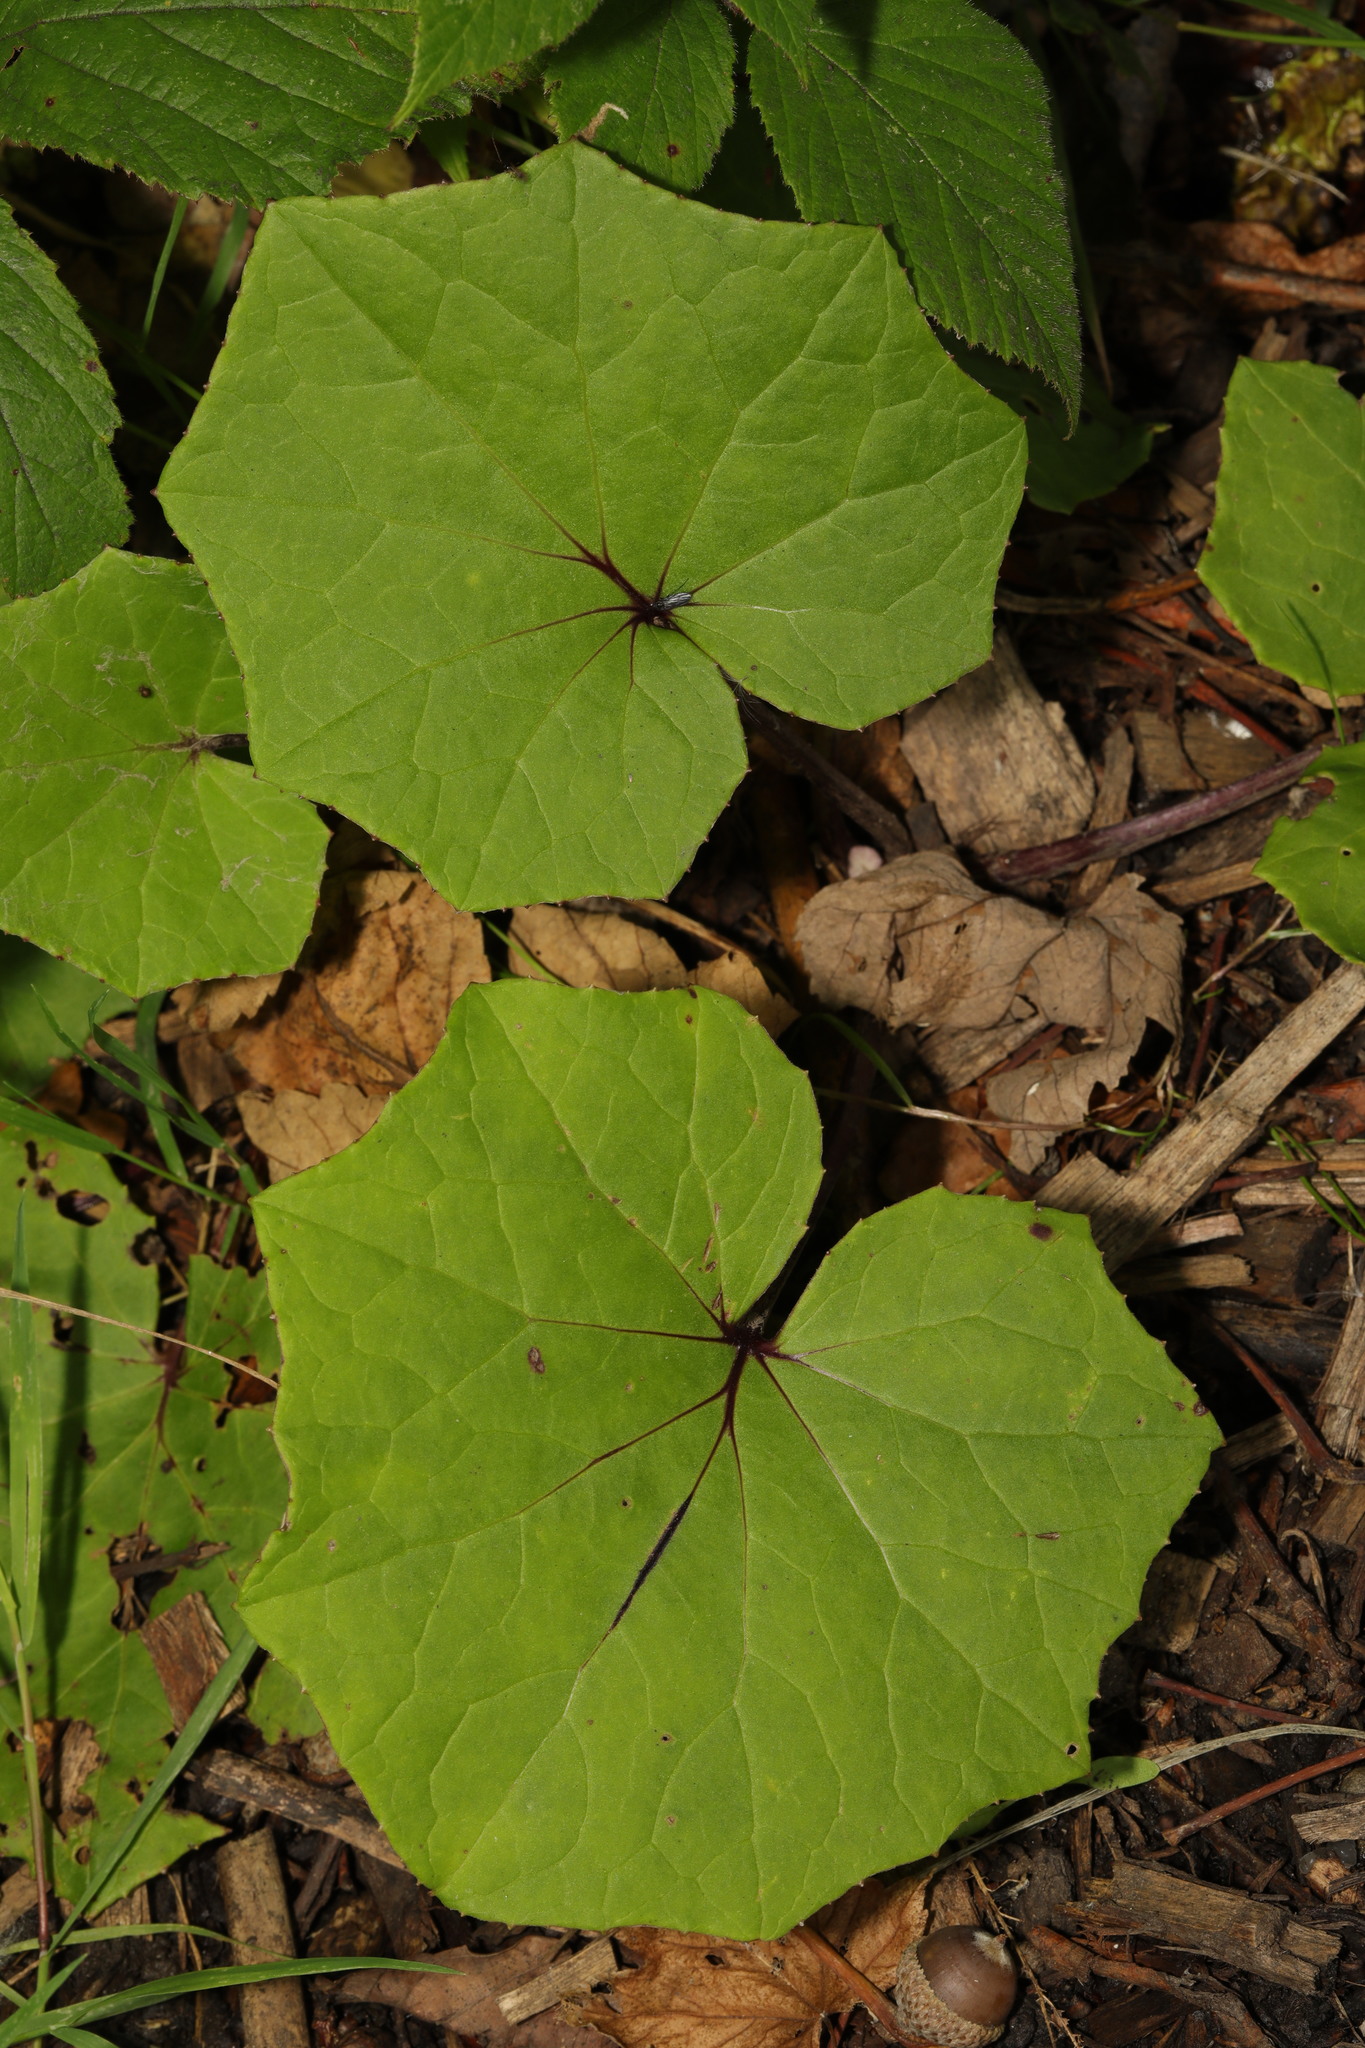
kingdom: Plantae
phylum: Tracheophyta
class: Magnoliopsida
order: Asterales
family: Asteraceae
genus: Tussilago
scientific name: Tussilago farfara
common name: Coltsfoot
